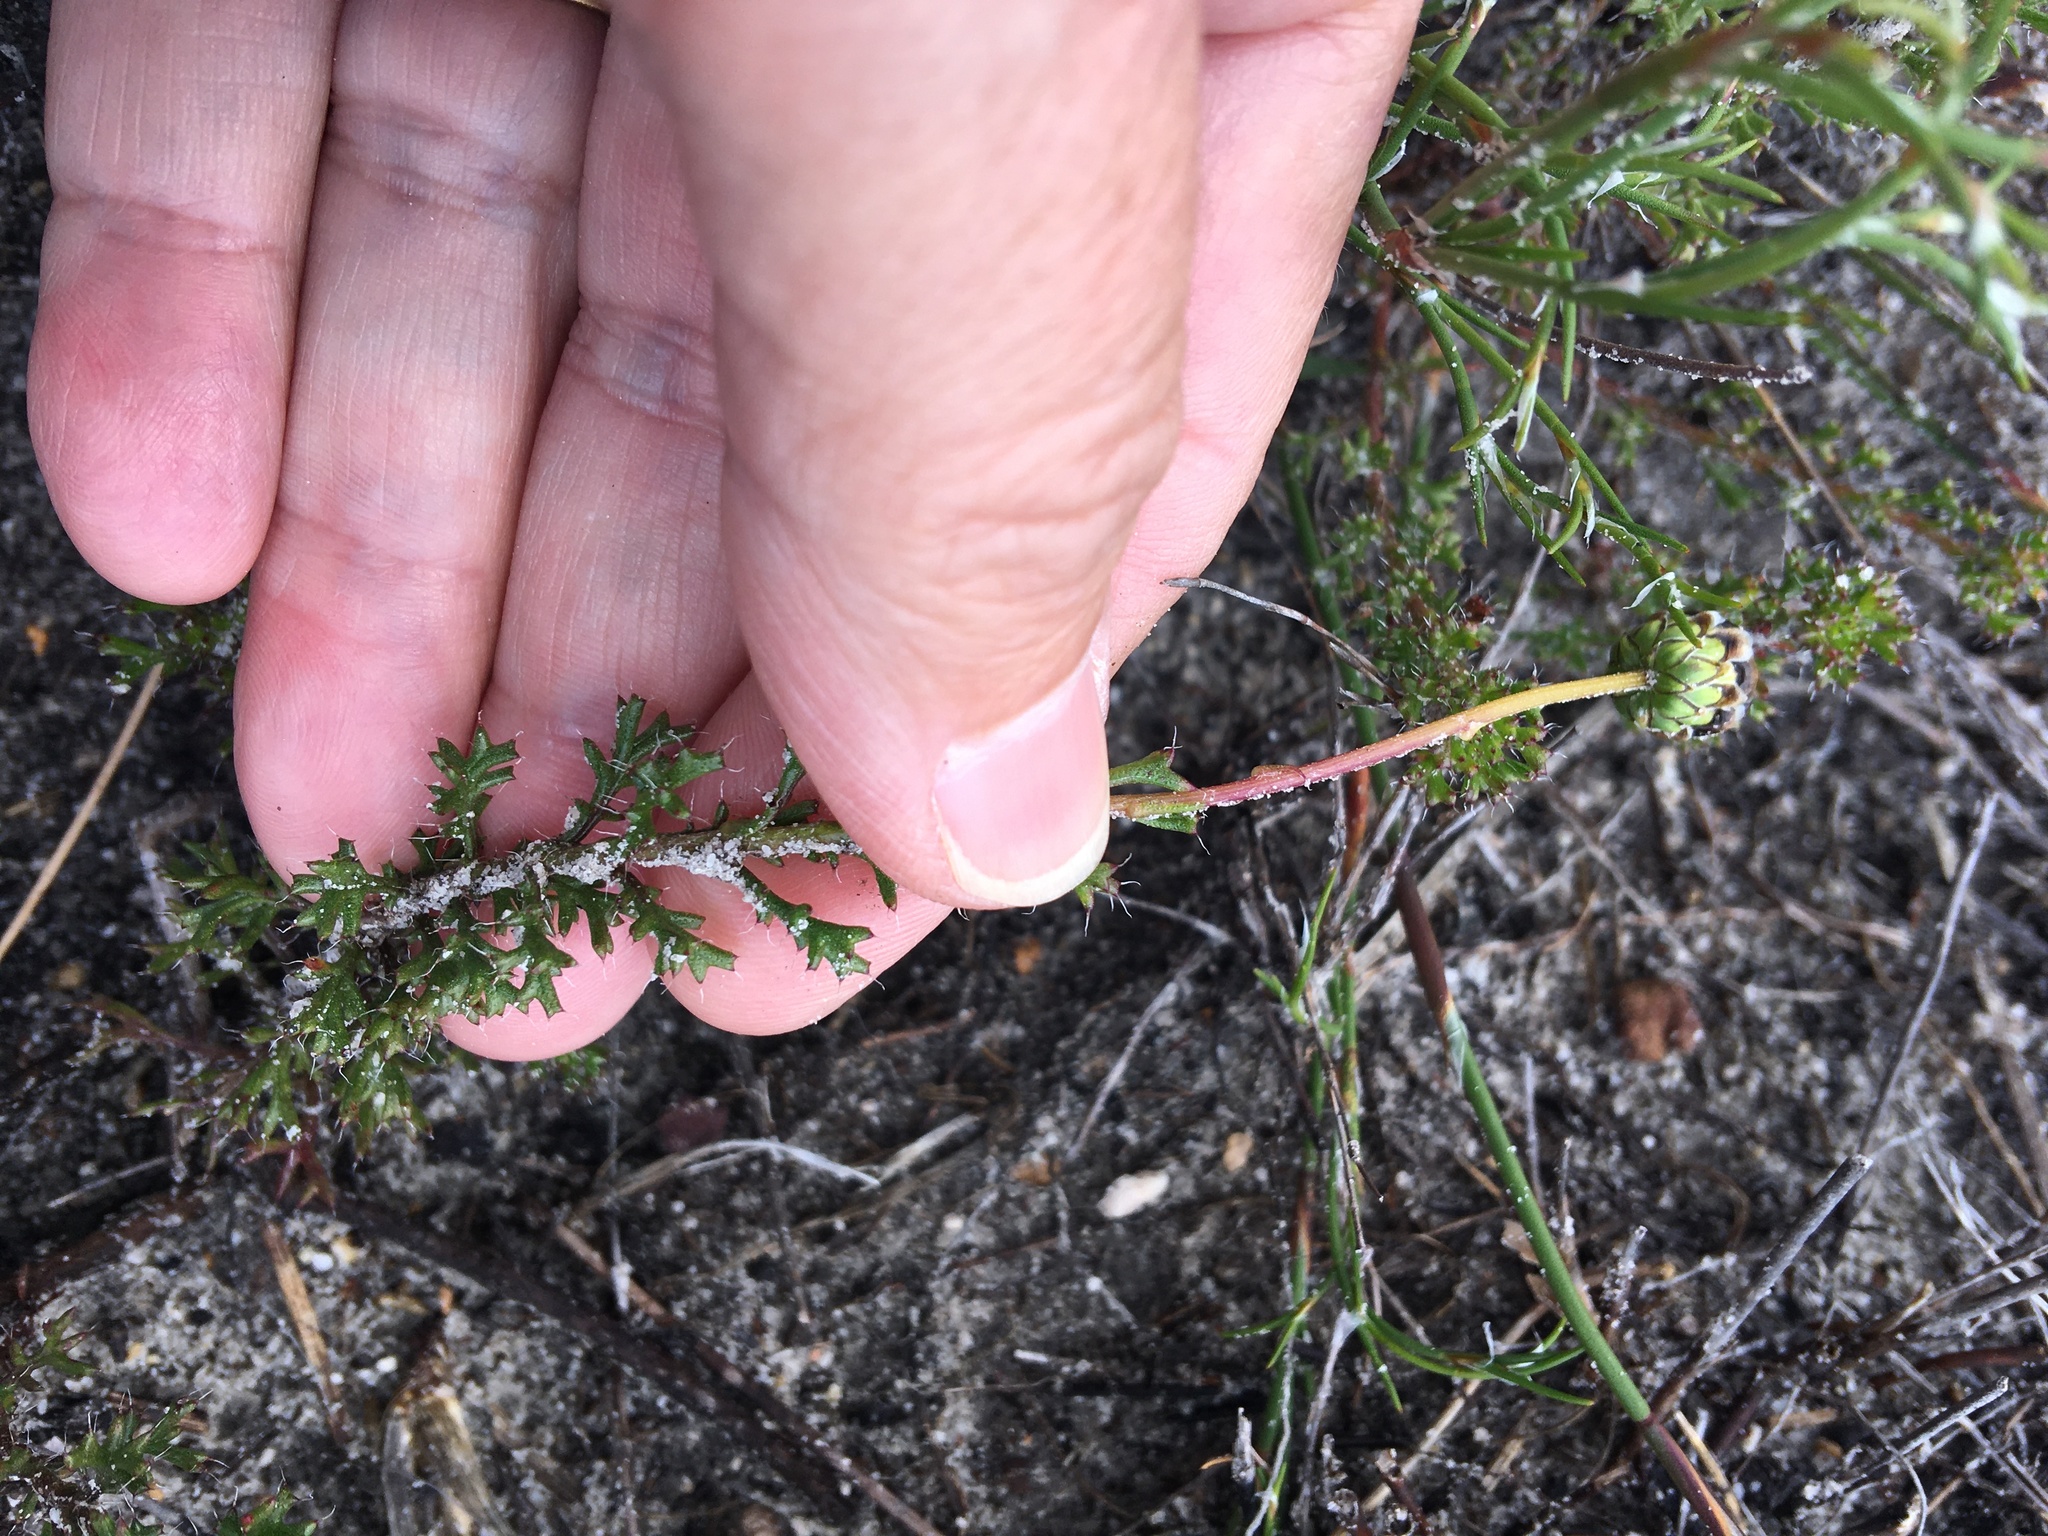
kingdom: Plantae
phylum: Tracheophyta
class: Magnoliopsida
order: Asterales
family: Asteraceae
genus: Ursinia
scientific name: Ursinia dentata
